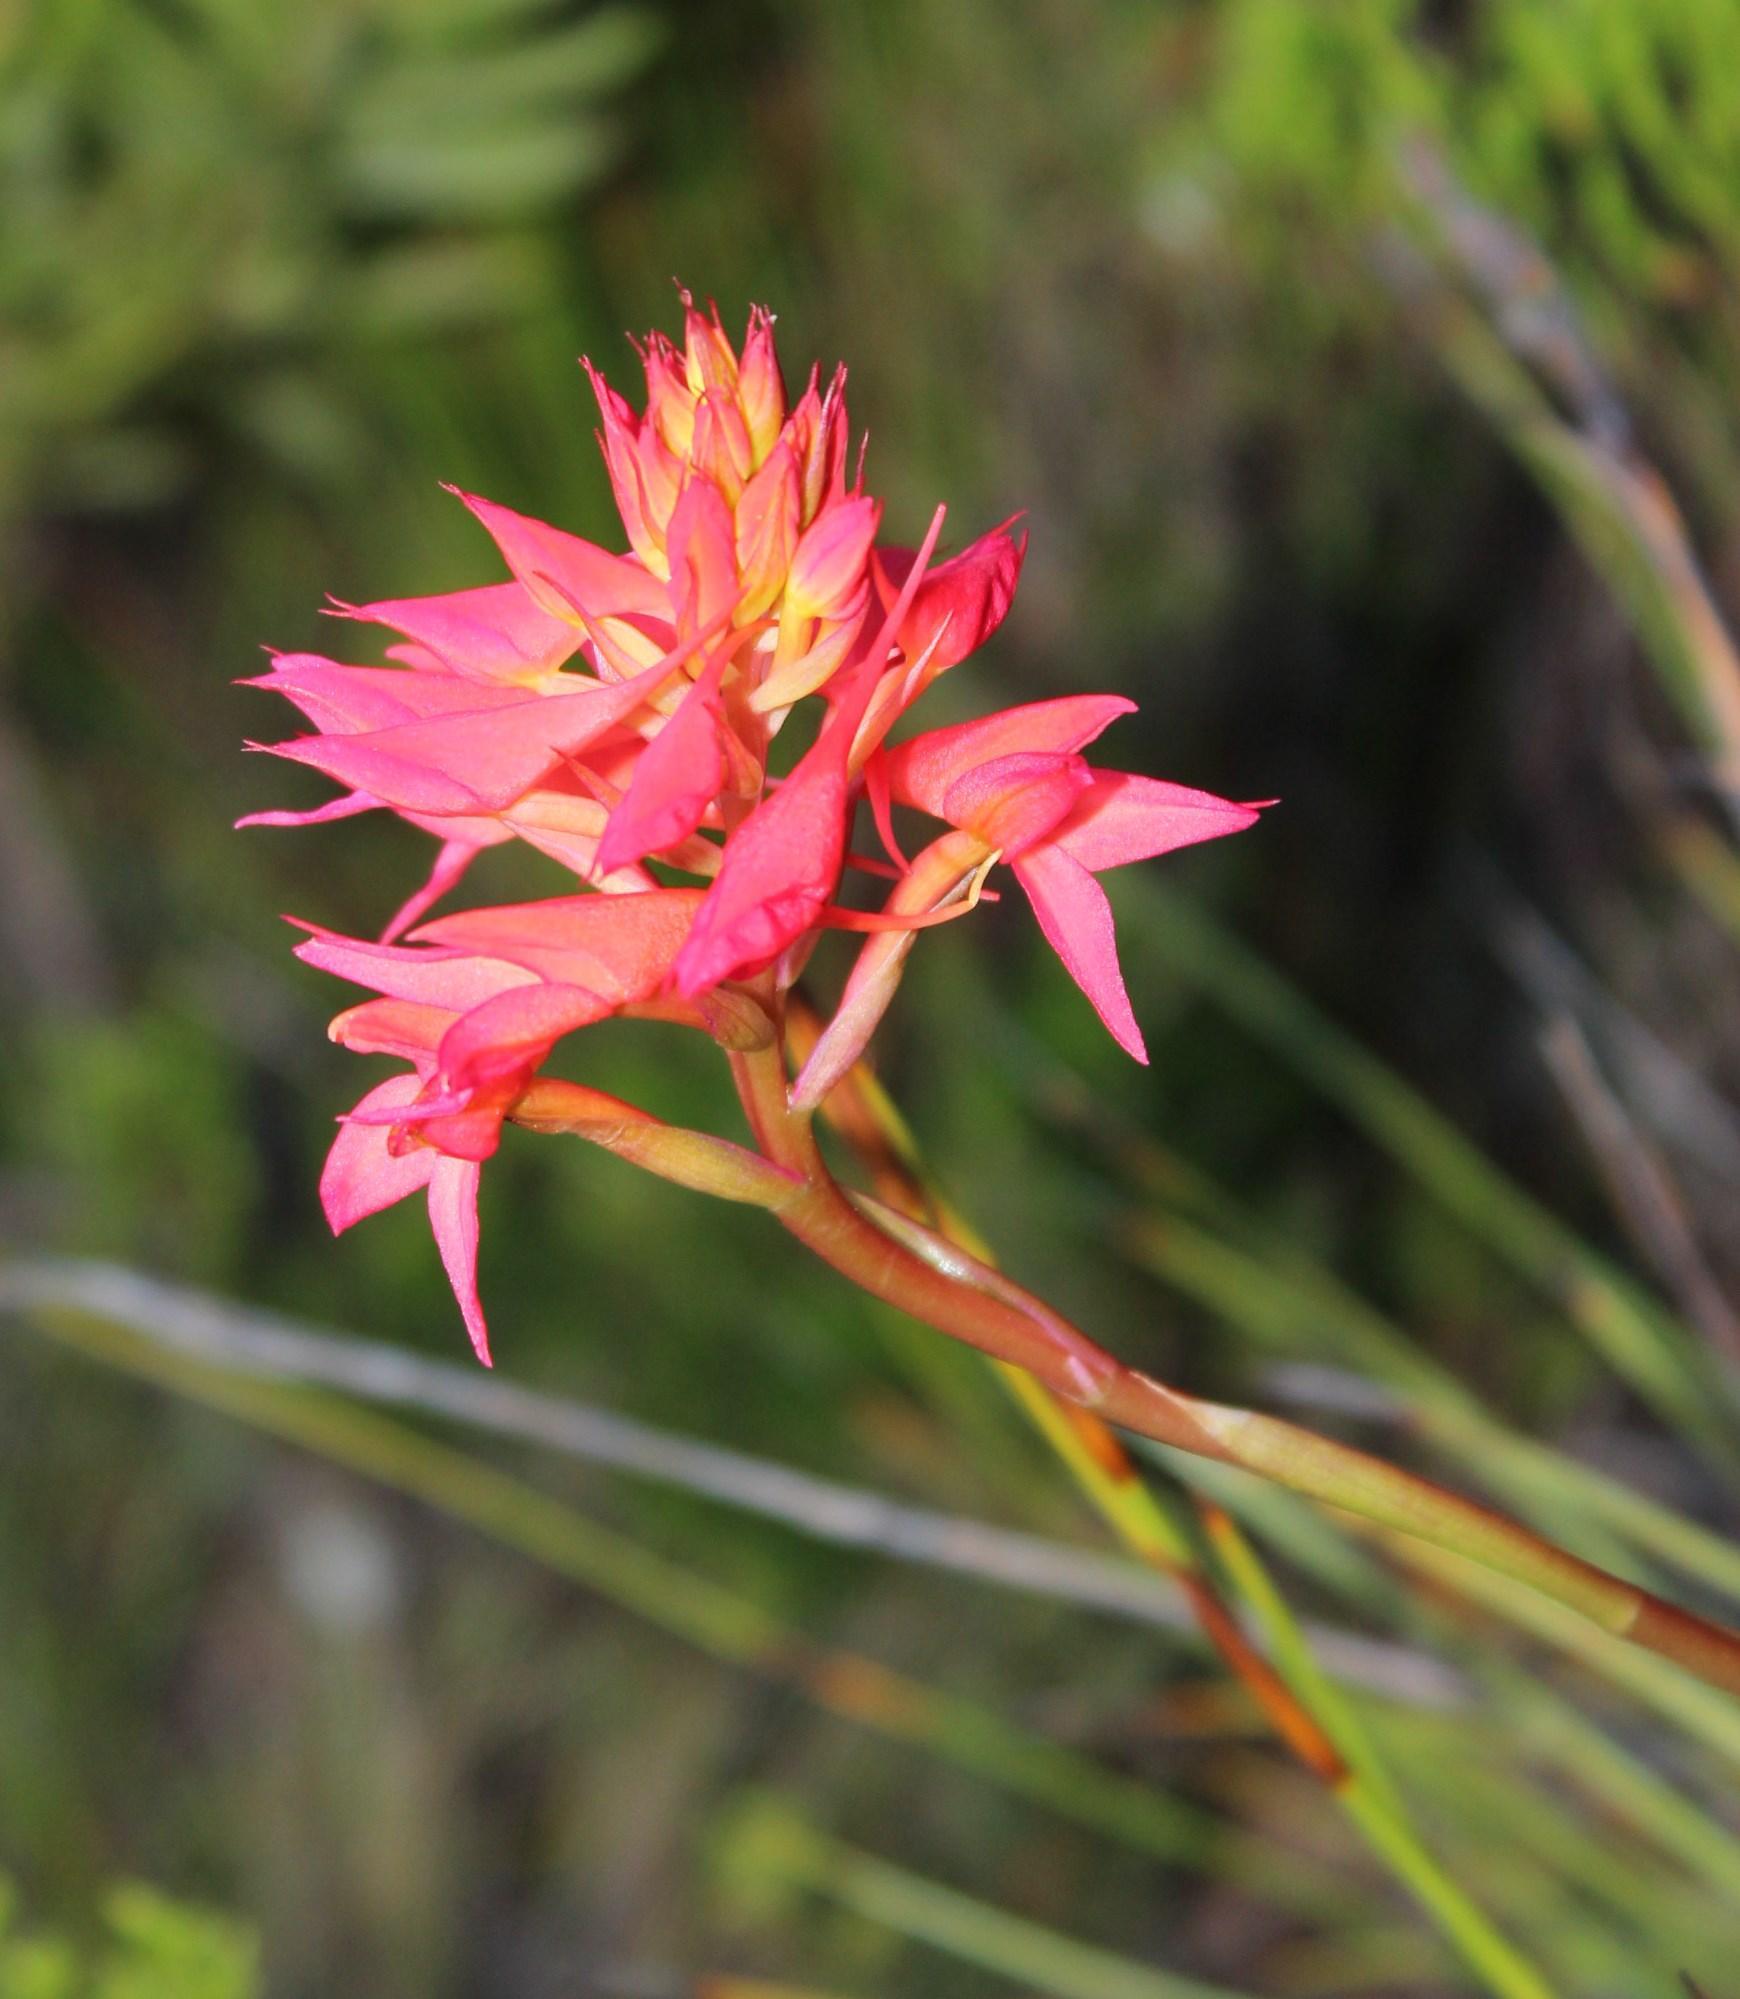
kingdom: Plantae
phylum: Tracheophyta
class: Liliopsida
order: Asparagales
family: Orchidaceae
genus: Disa
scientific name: Disa ferruginea
